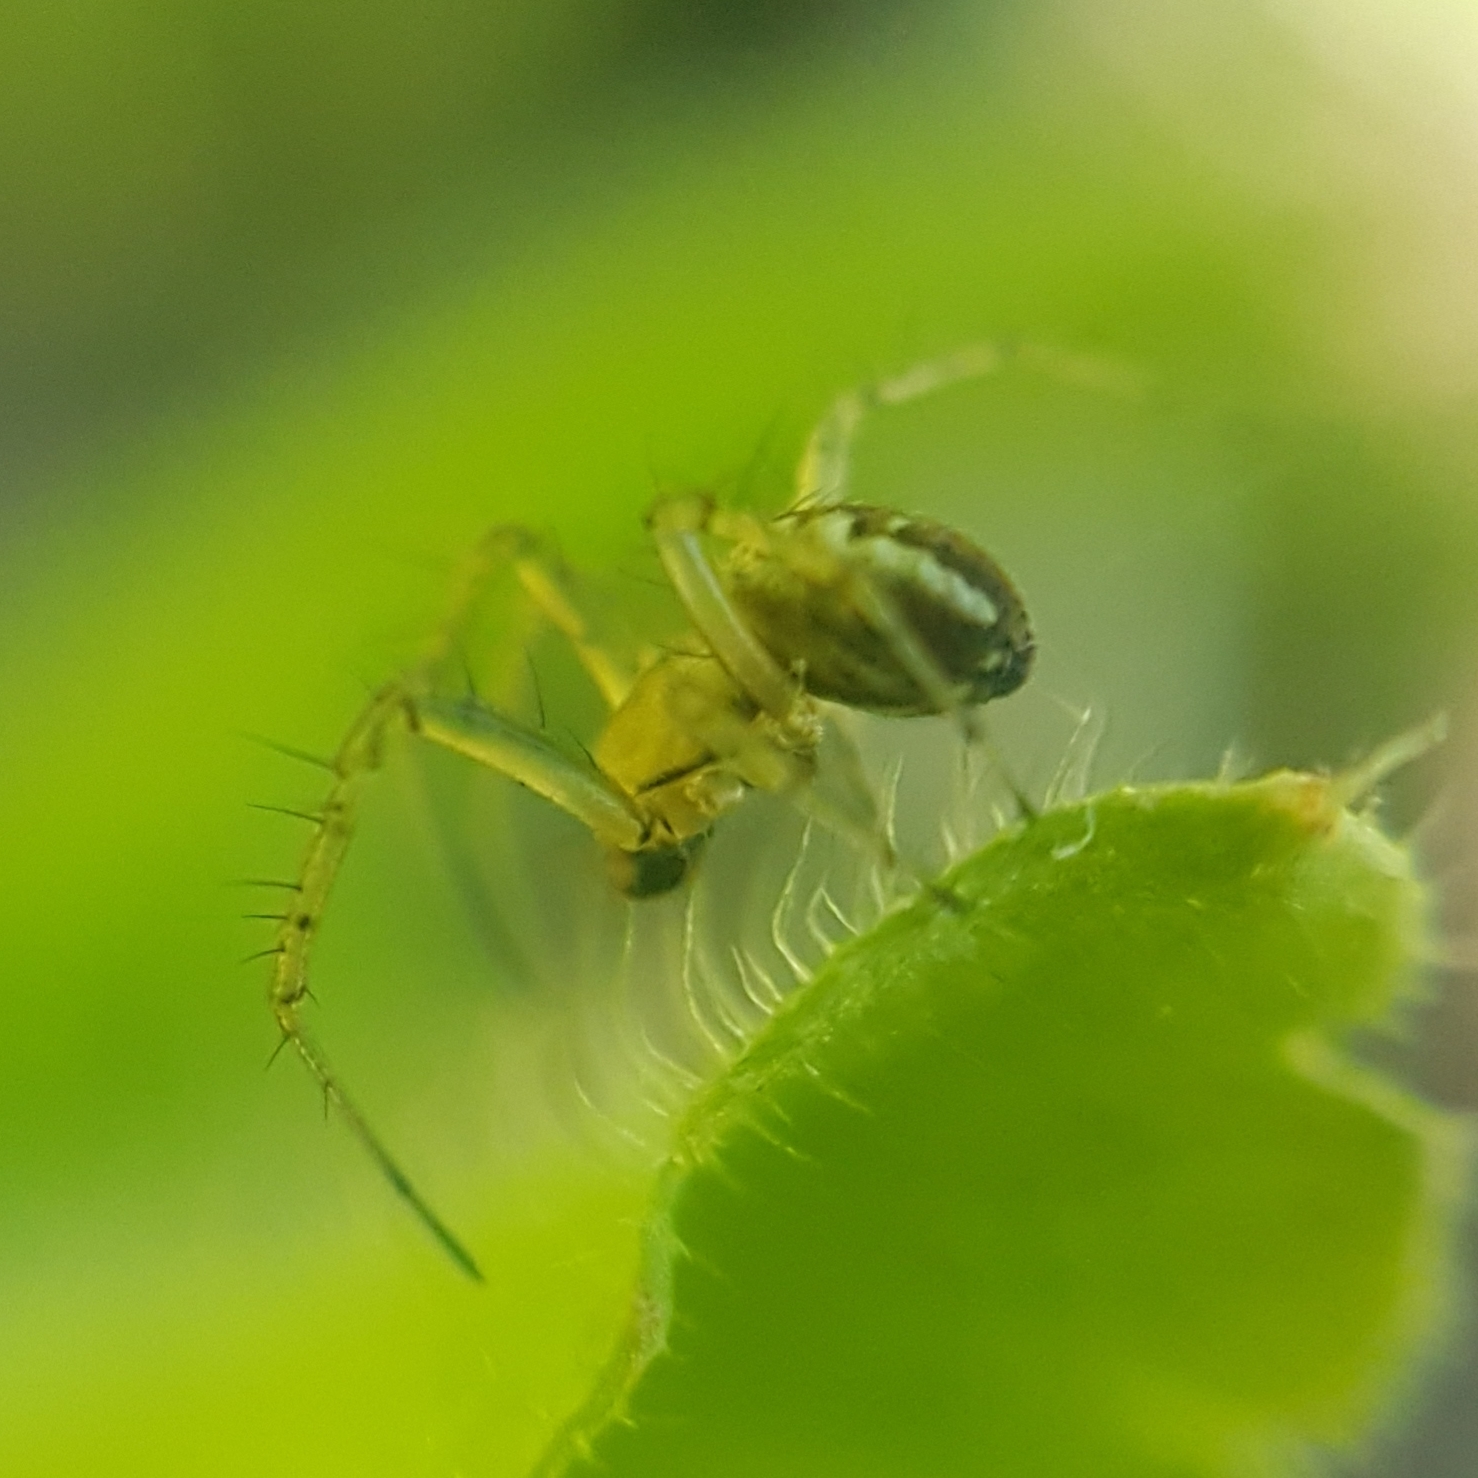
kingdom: Animalia
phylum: Arthropoda
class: Arachnida
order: Araneae
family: Araneidae
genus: Mangora
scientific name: Mangora acalypha
